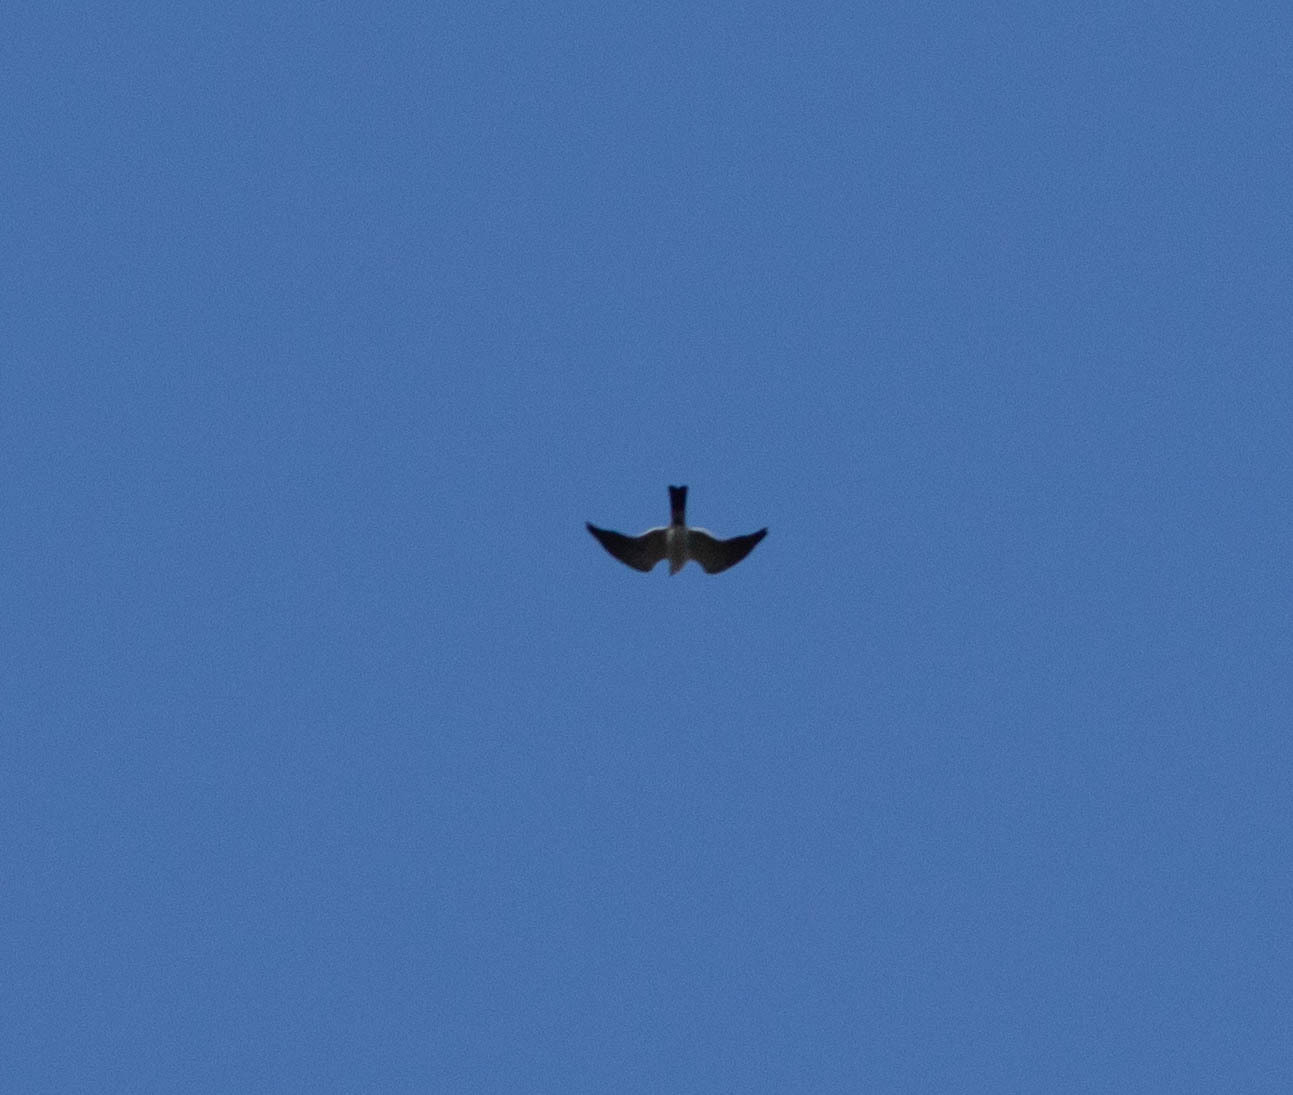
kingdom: Animalia
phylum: Chordata
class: Aves
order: Accipitriformes
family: Accipitridae
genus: Ictinia
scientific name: Ictinia mississippiensis
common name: Mississippi kite
